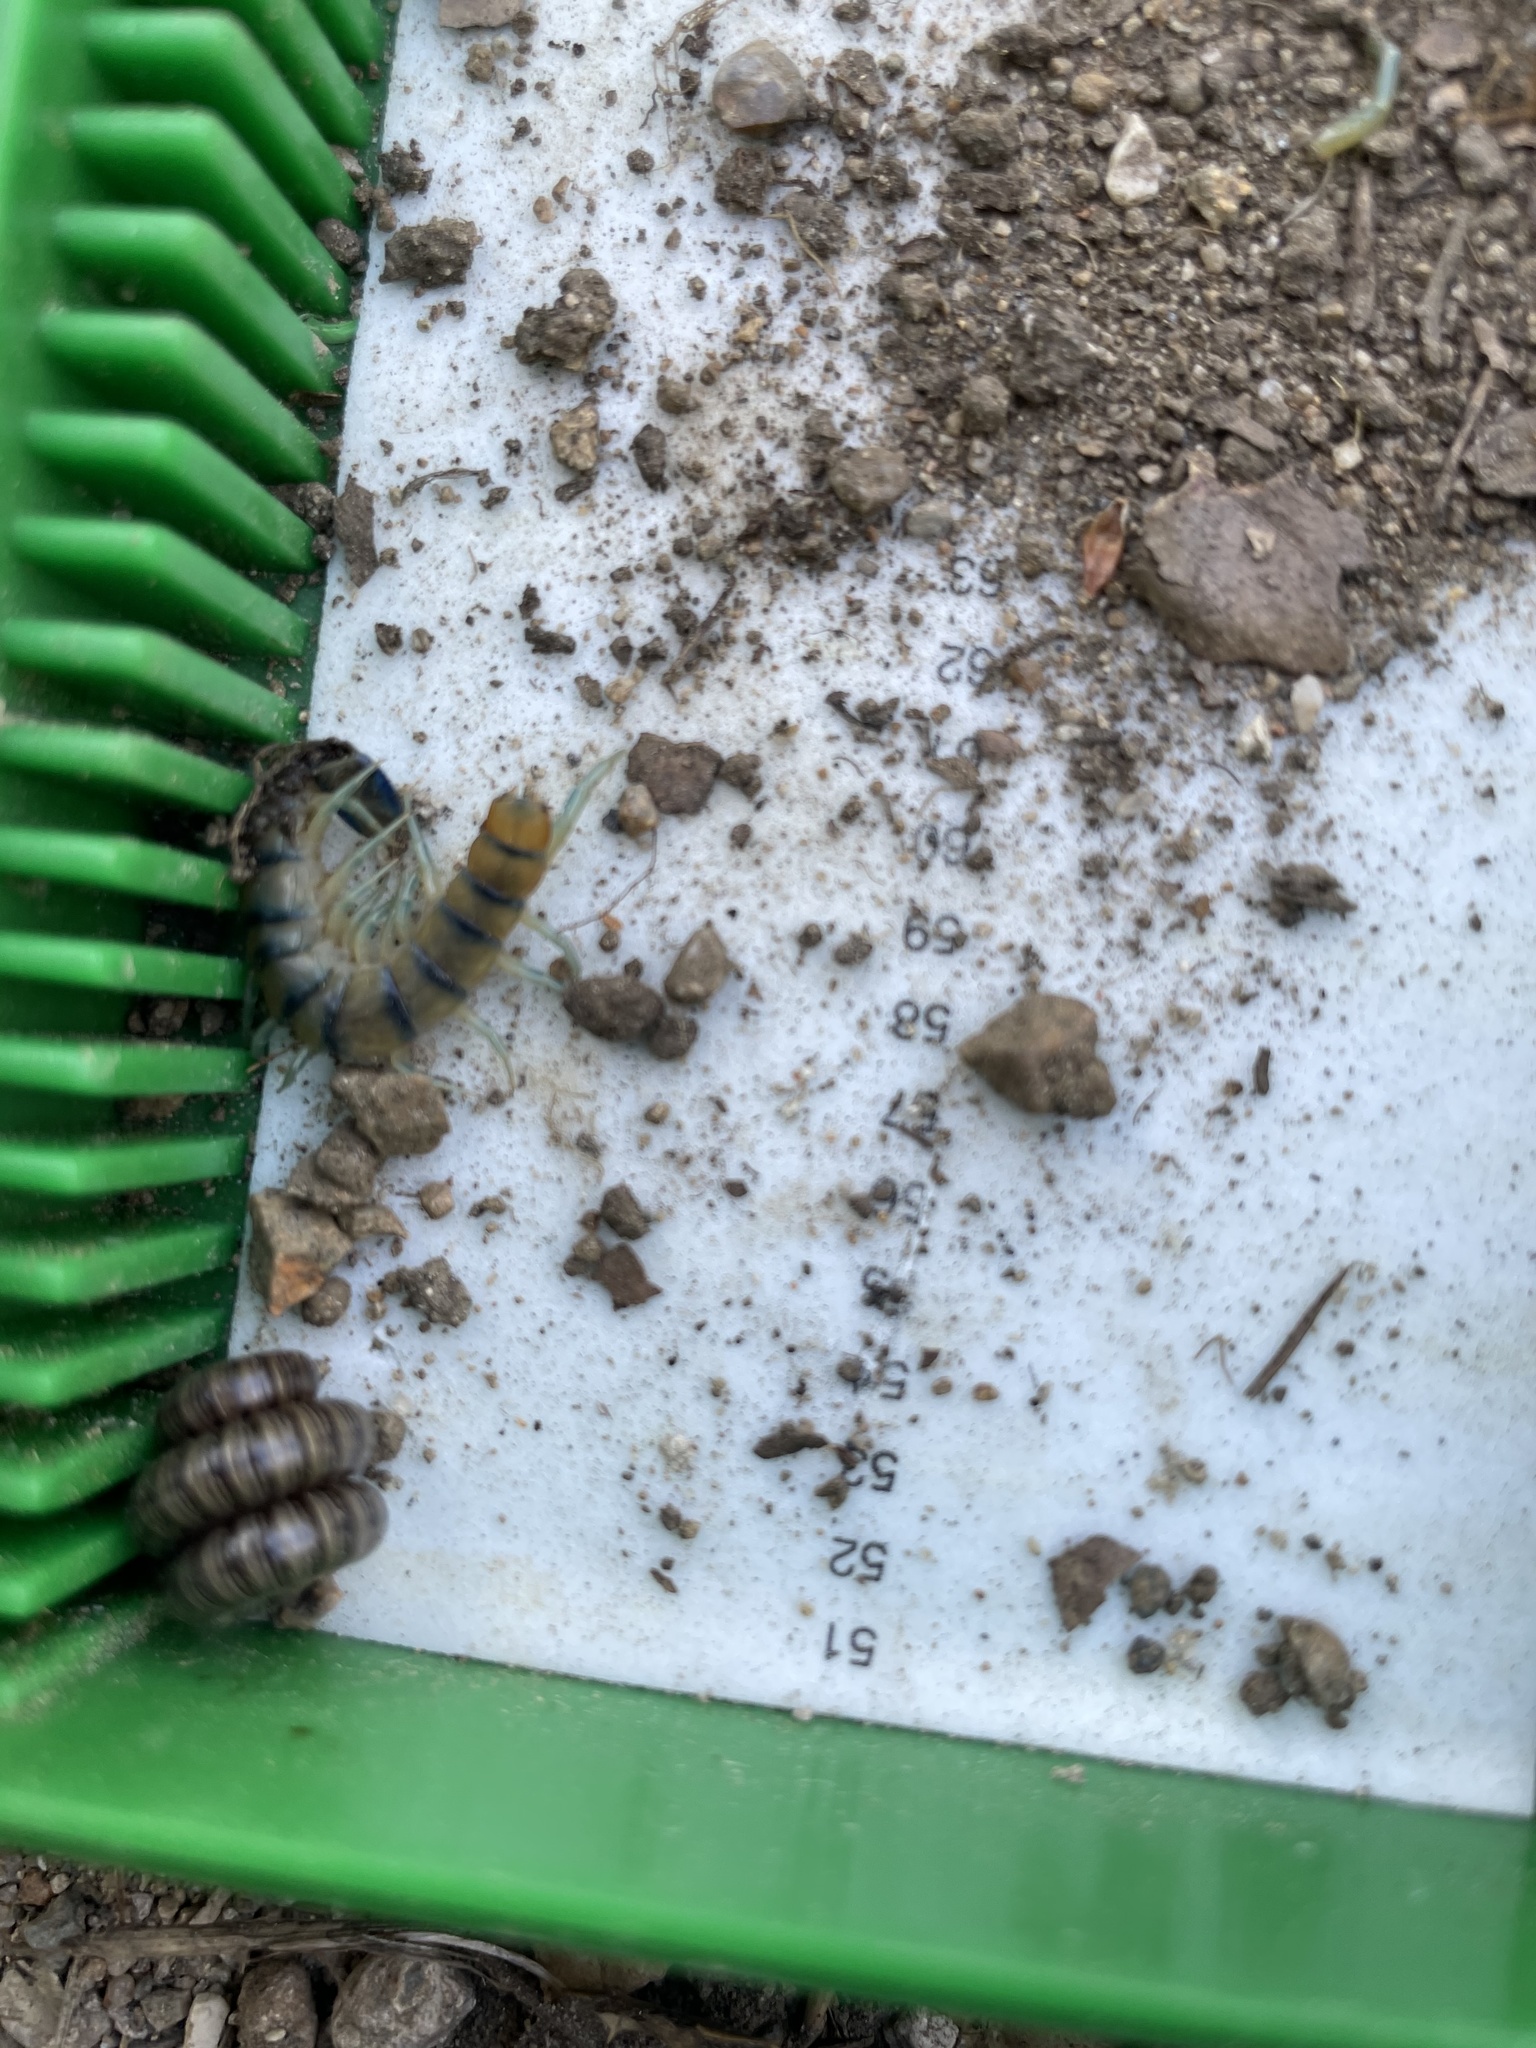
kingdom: Animalia
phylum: Arthropoda
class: Chilopoda
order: Scolopendromorpha
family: Scolopendridae
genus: Scolopendra
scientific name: Scolopendra polymorpha
